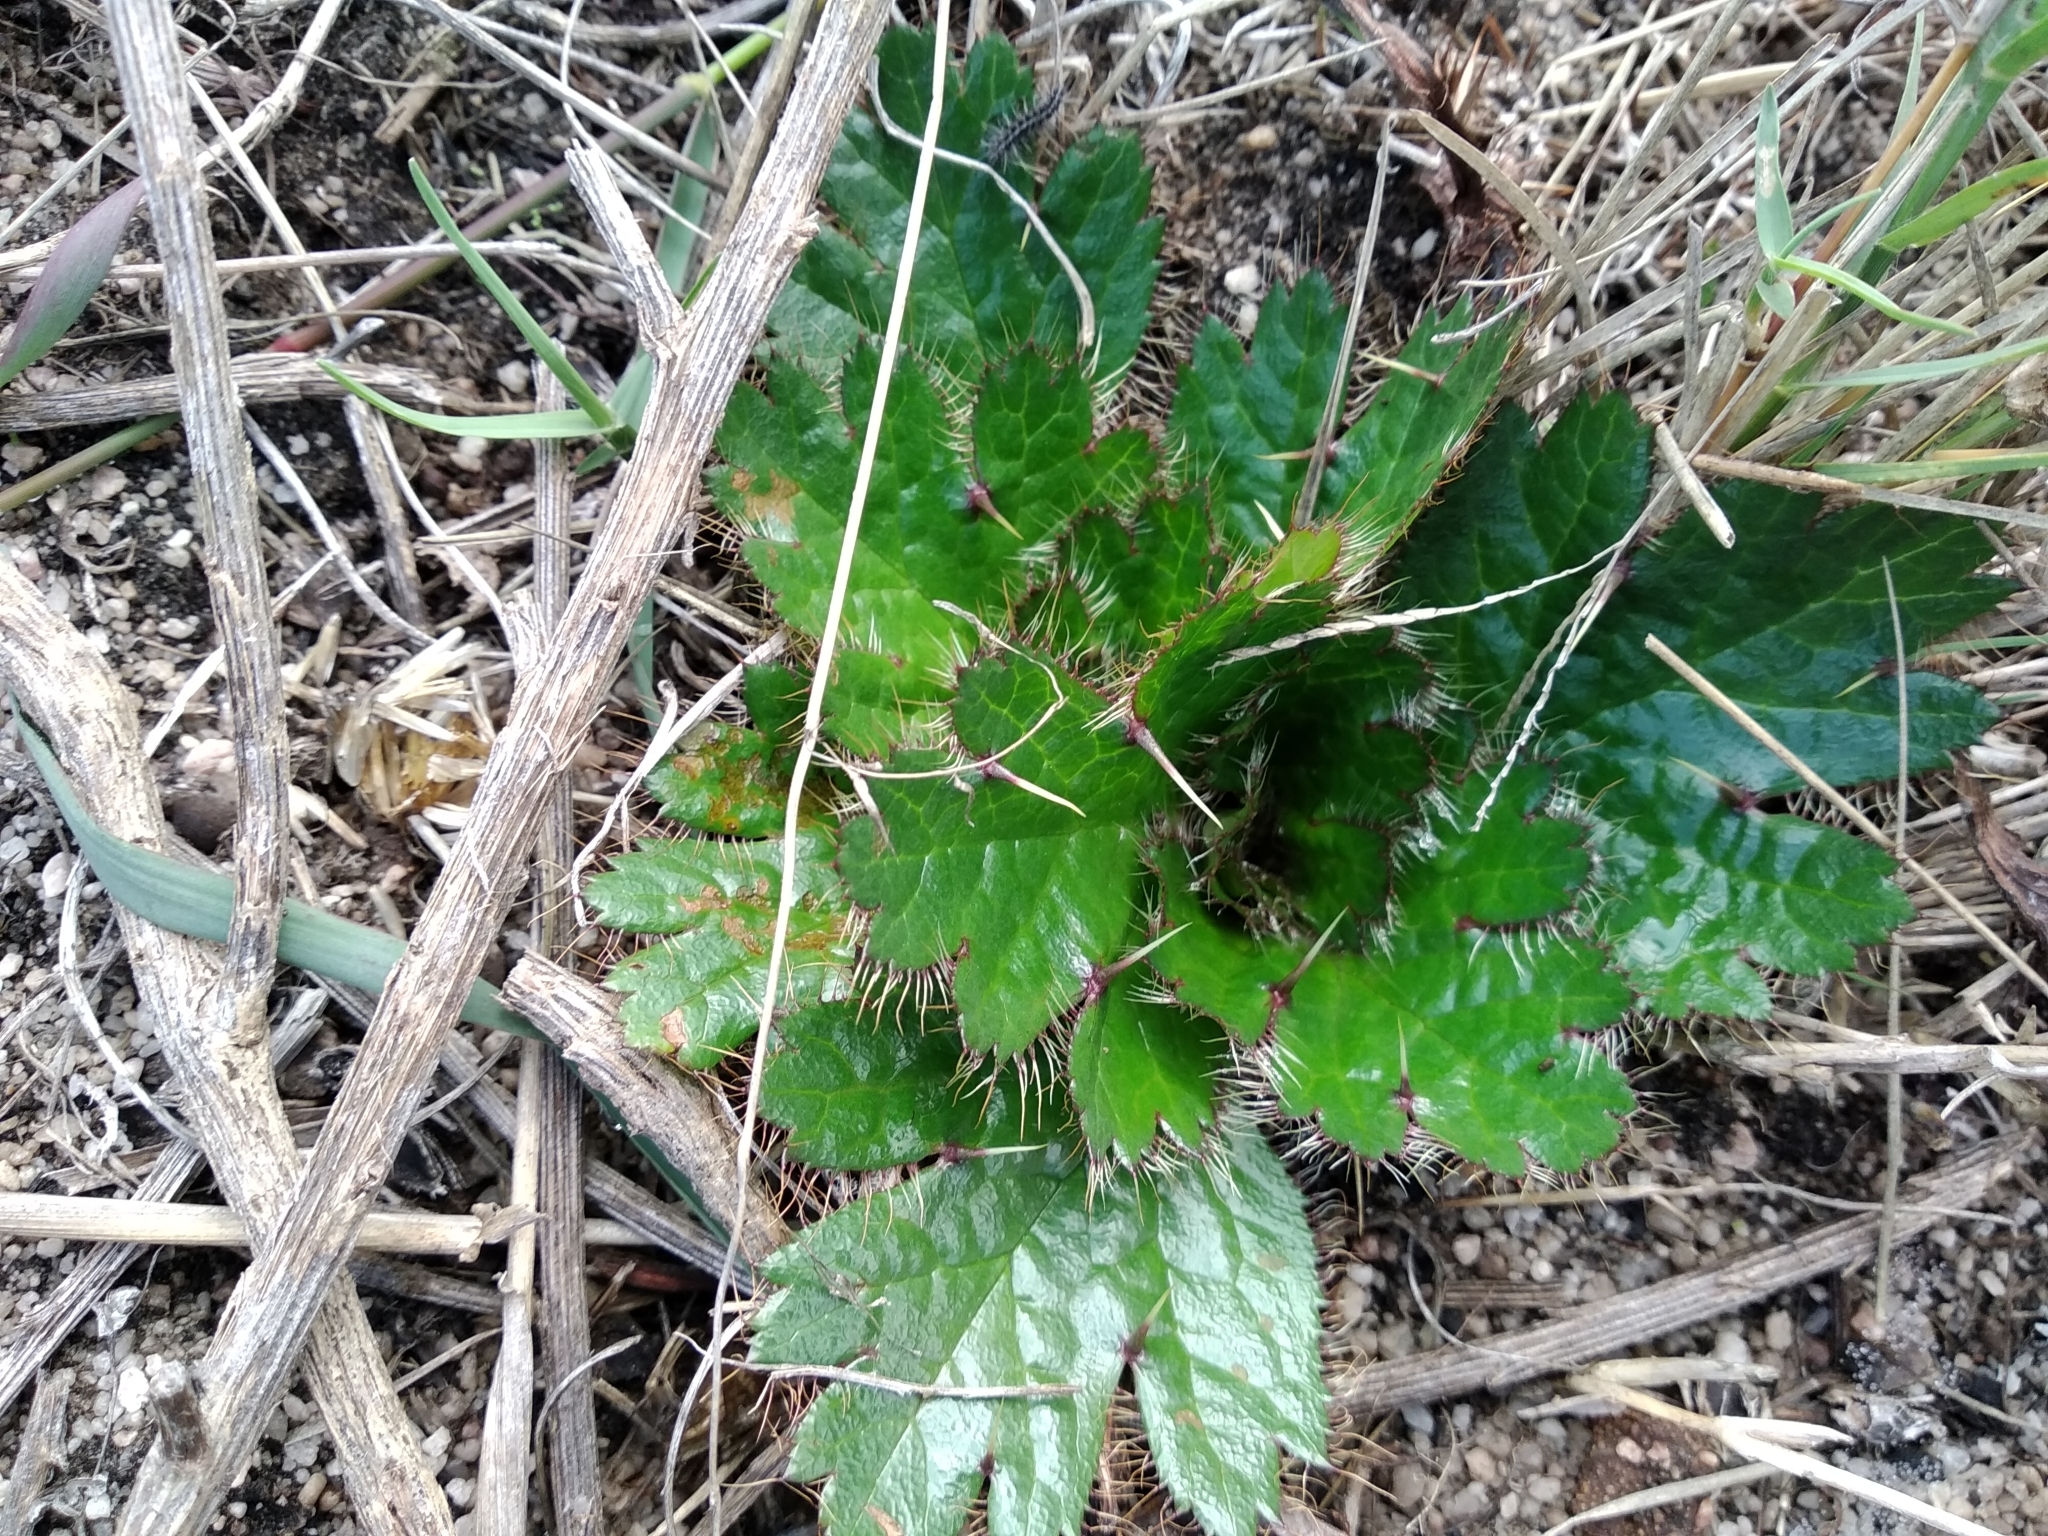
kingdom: Plantae
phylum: Tracheophyta
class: Magnoliopsida
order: Apiales
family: Apiaceae
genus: Arctopus
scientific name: Arctopus echinatus
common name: Platdoring
